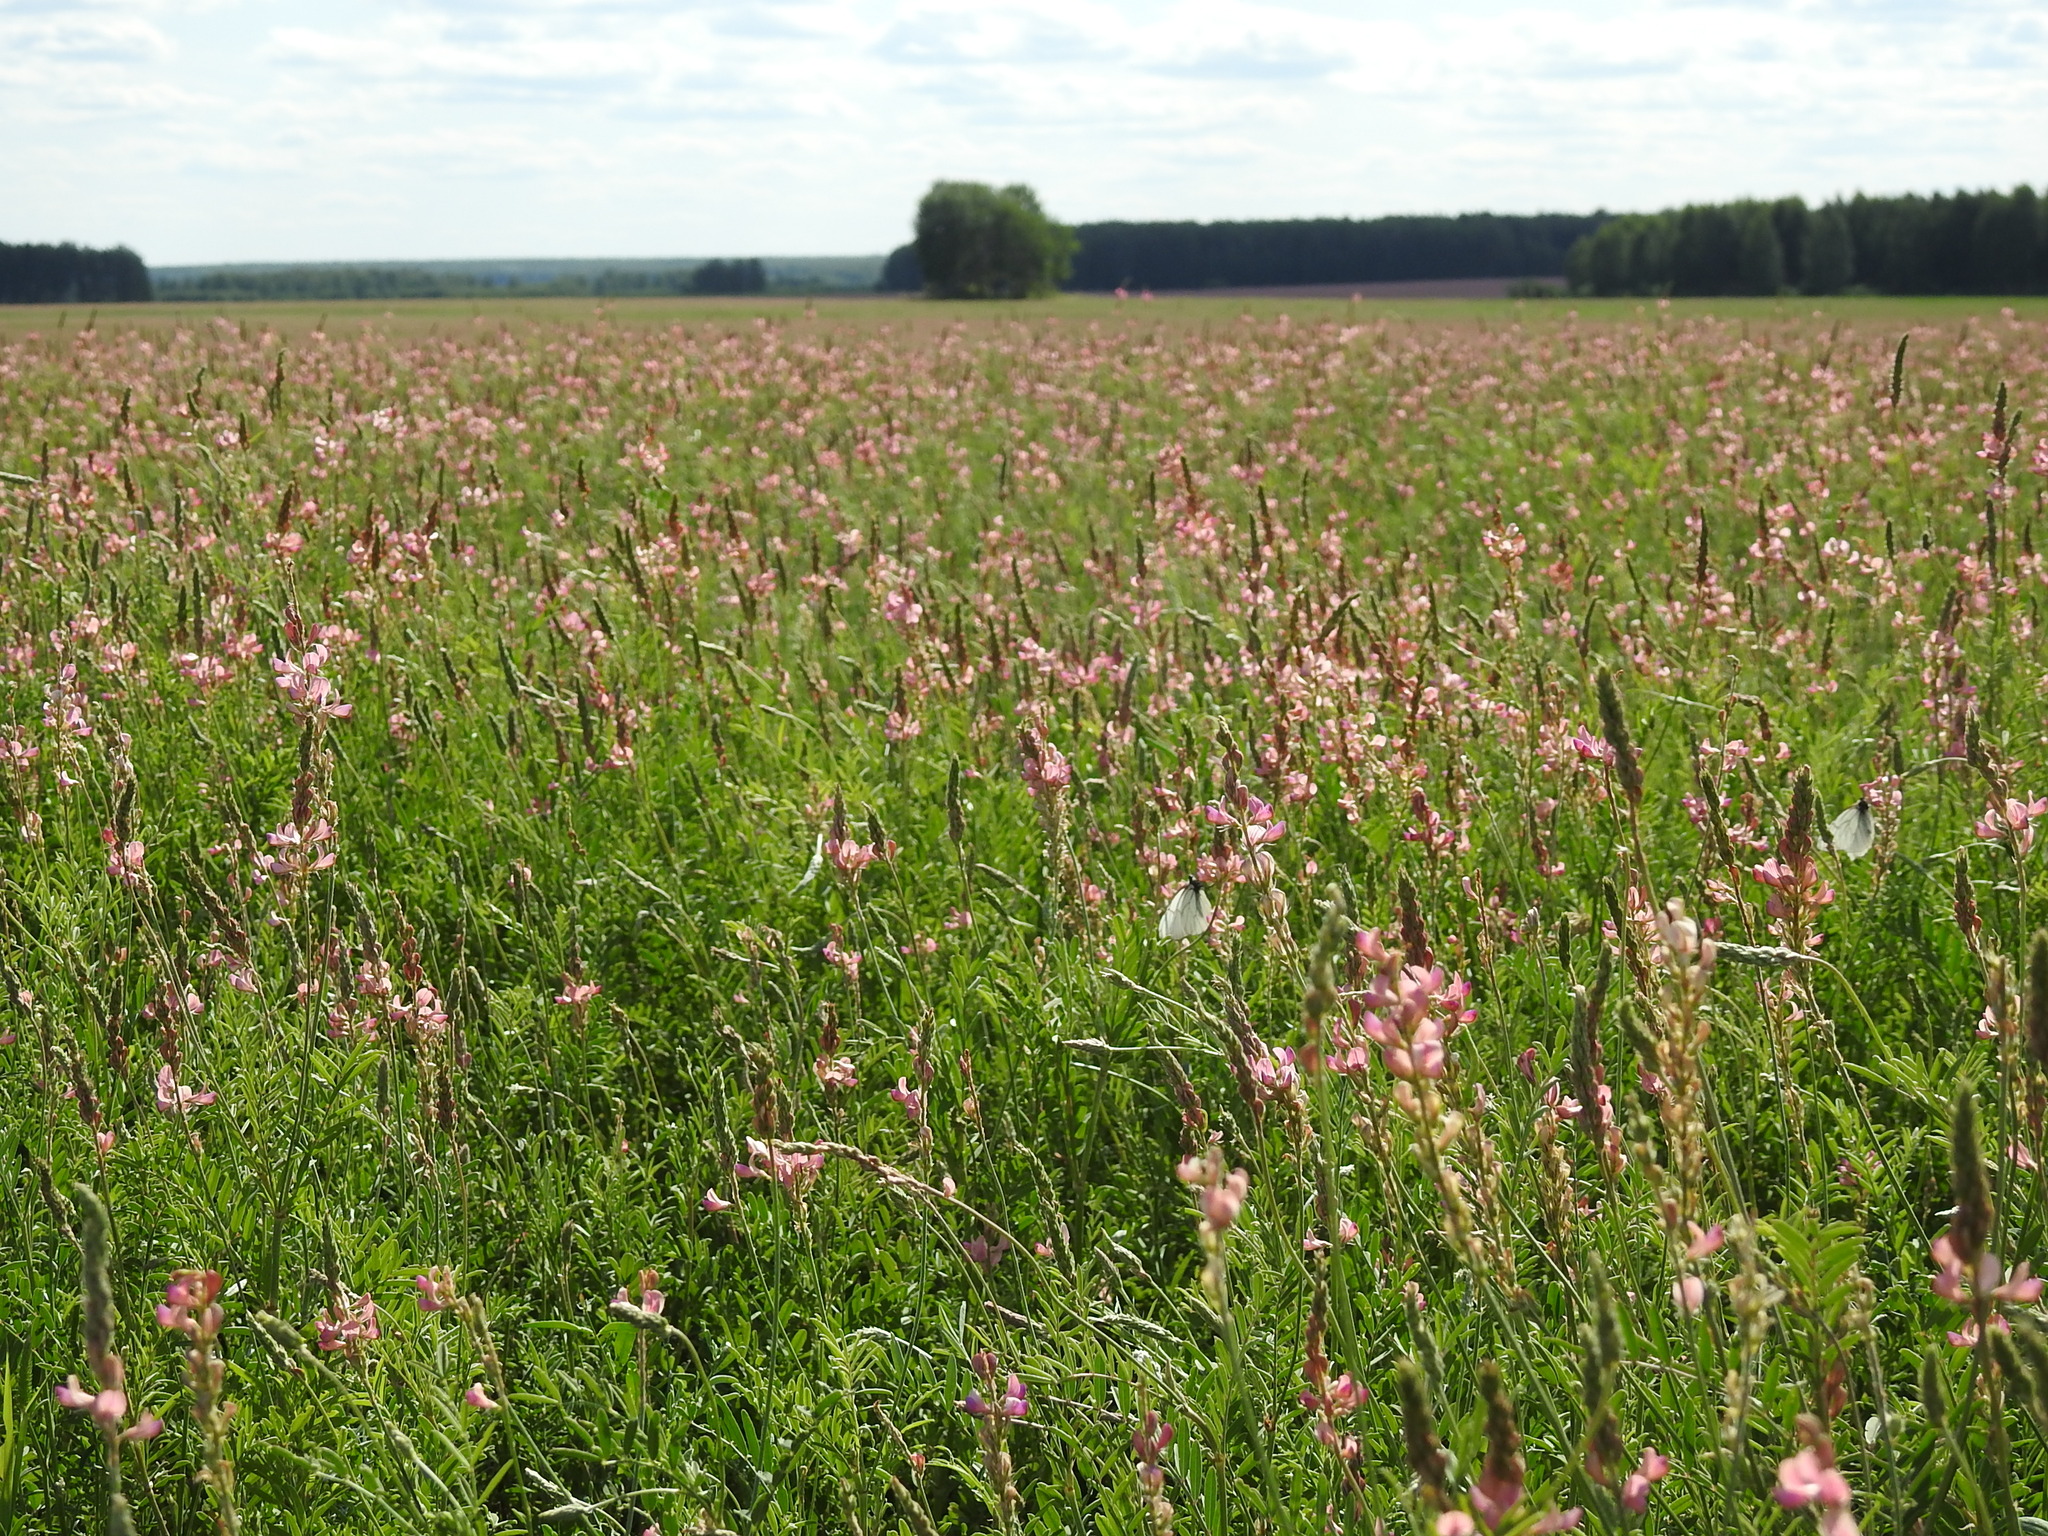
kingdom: Plantae
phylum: Tracheophyta
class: Magnoliopsida
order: Fabales
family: Fabaceae
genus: Onobrychis
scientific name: Onobrychis arenaria
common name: Sand esparcet
